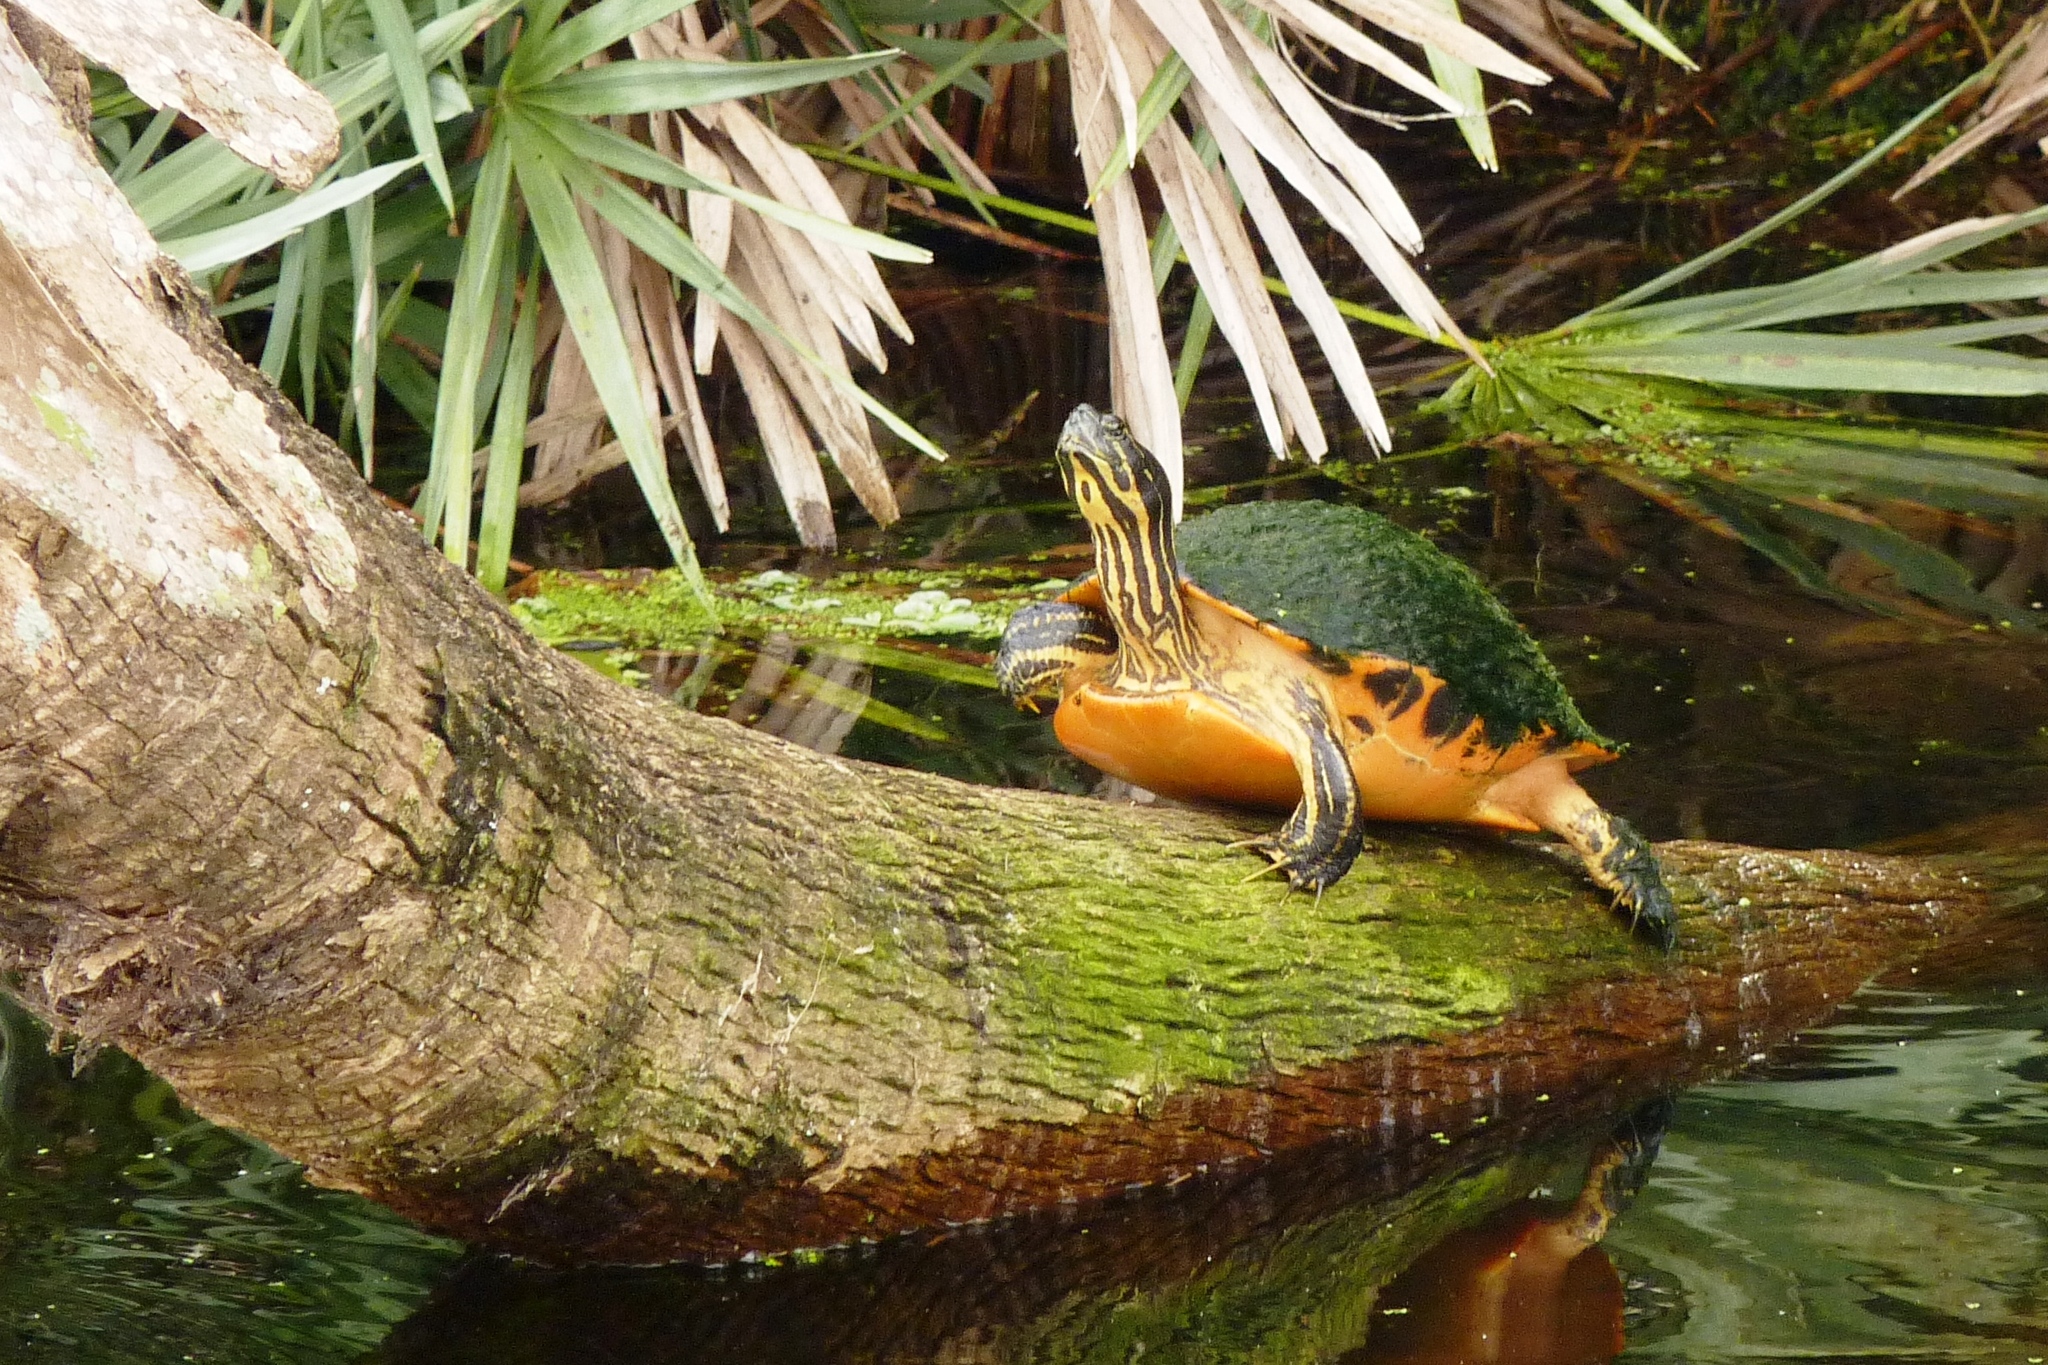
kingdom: Animalia
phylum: Chordata
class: Testudines
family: Emydidae
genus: Pseudemys
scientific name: Pseudemys nelsoni
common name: Florida red-bellied turtle
